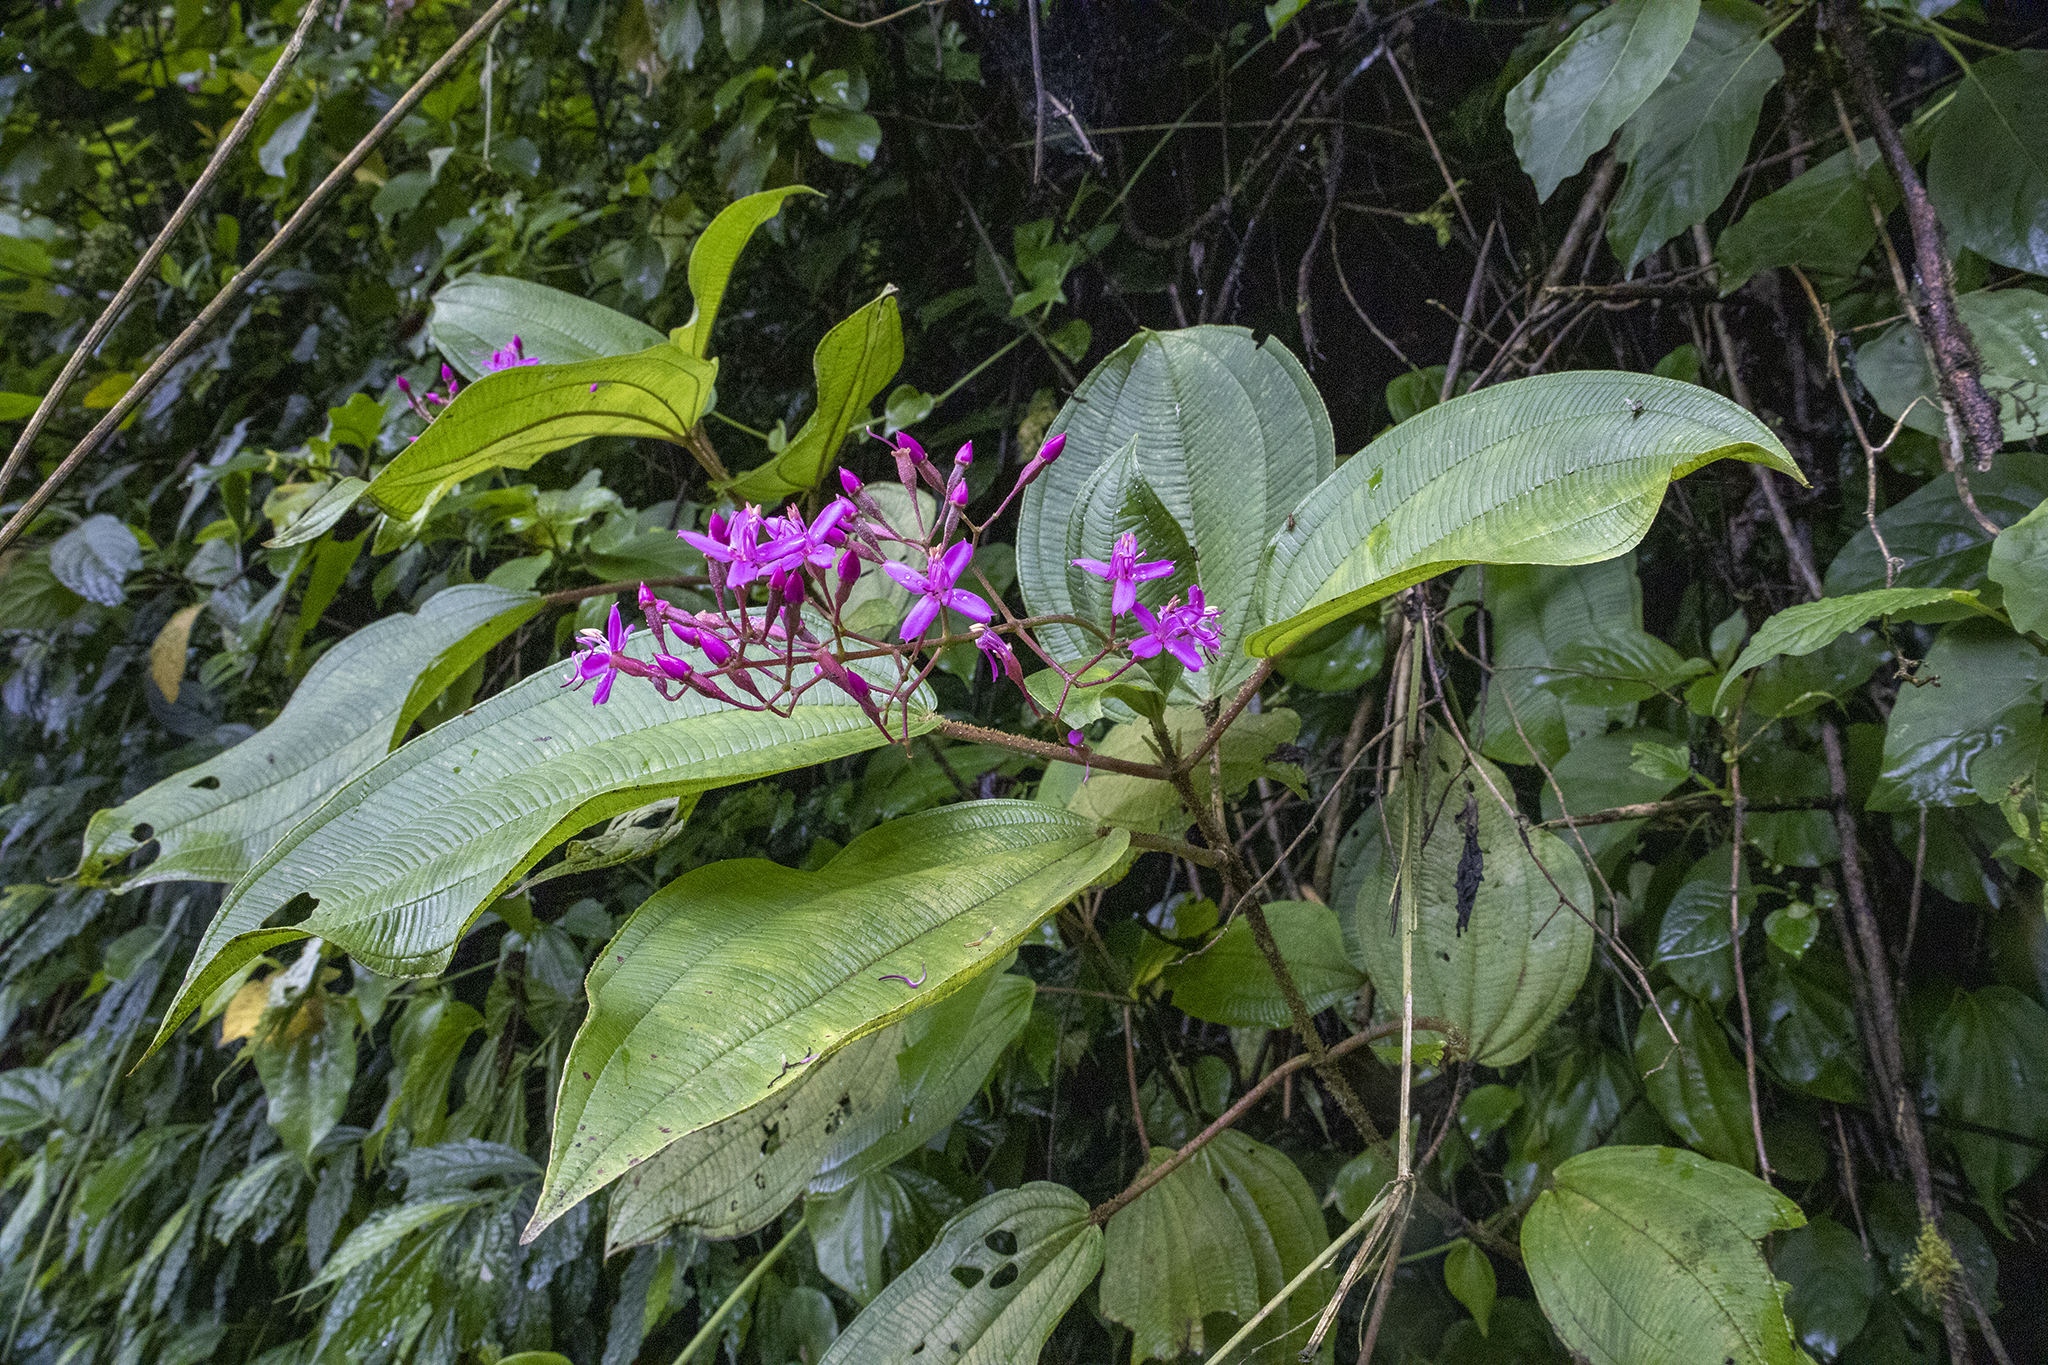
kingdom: Plantae
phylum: Tracheophyta
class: Magnoliopsida
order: Myrtales
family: Melastomataceae
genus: Oxyspora
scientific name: Oxyspora paniculata
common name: Bristletips
